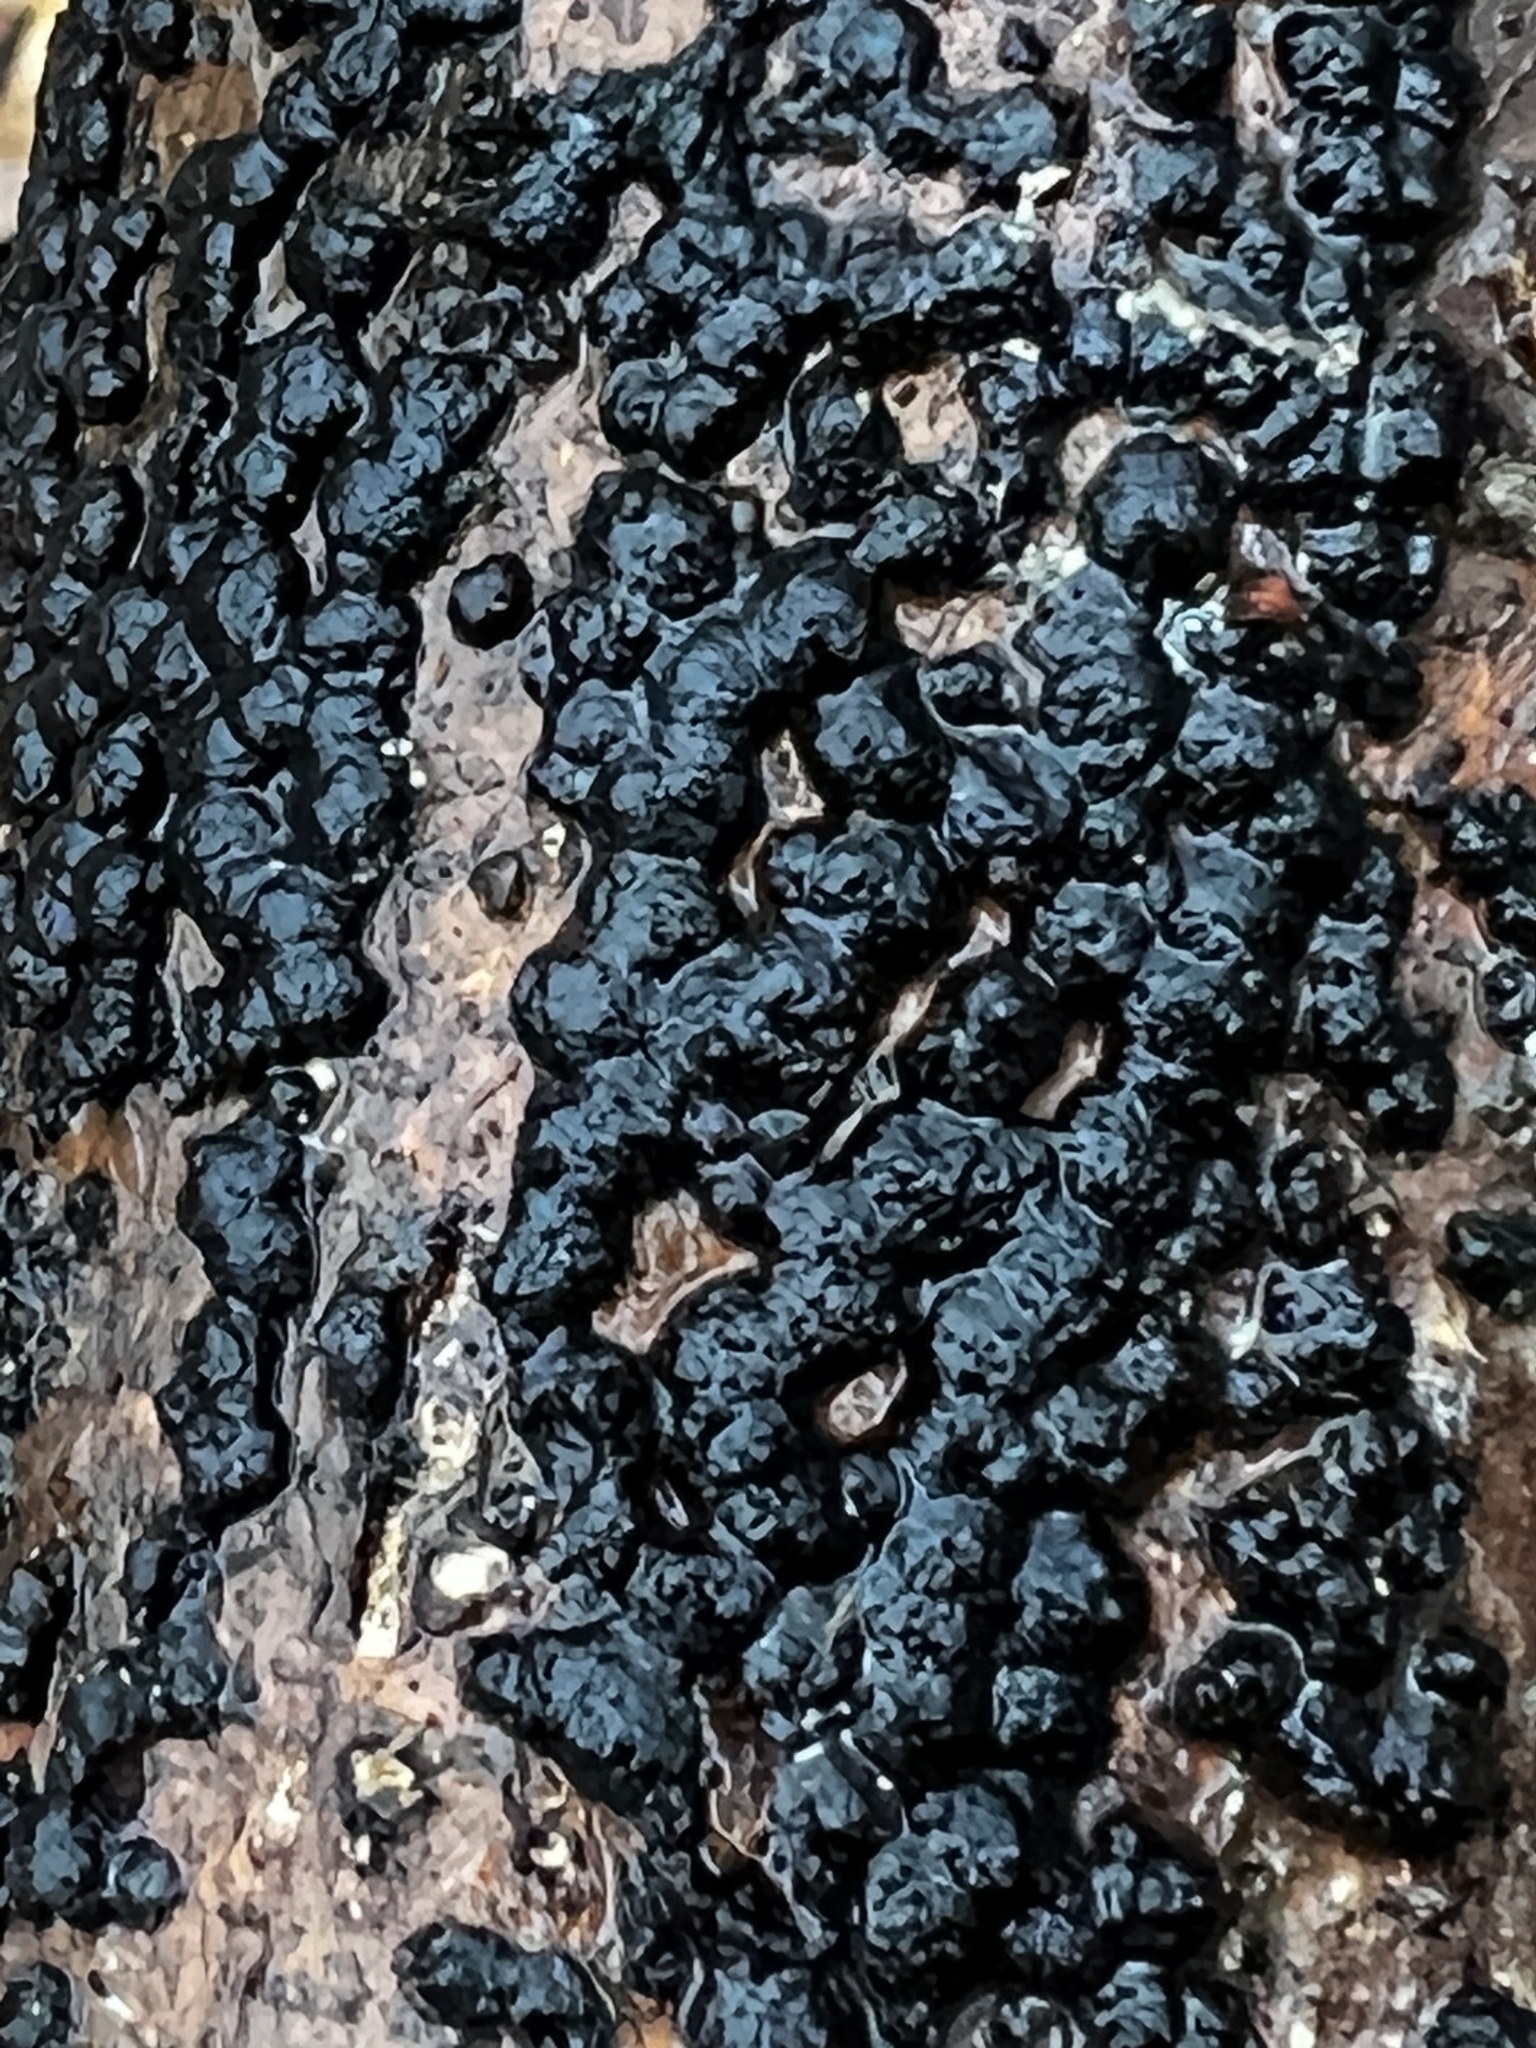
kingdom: Fungi
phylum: Ascomycota
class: Sordariomycetes
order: Xylariales
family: Hypoxylaceae
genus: Jackrogersella
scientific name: Jackrogersella cohaerens
